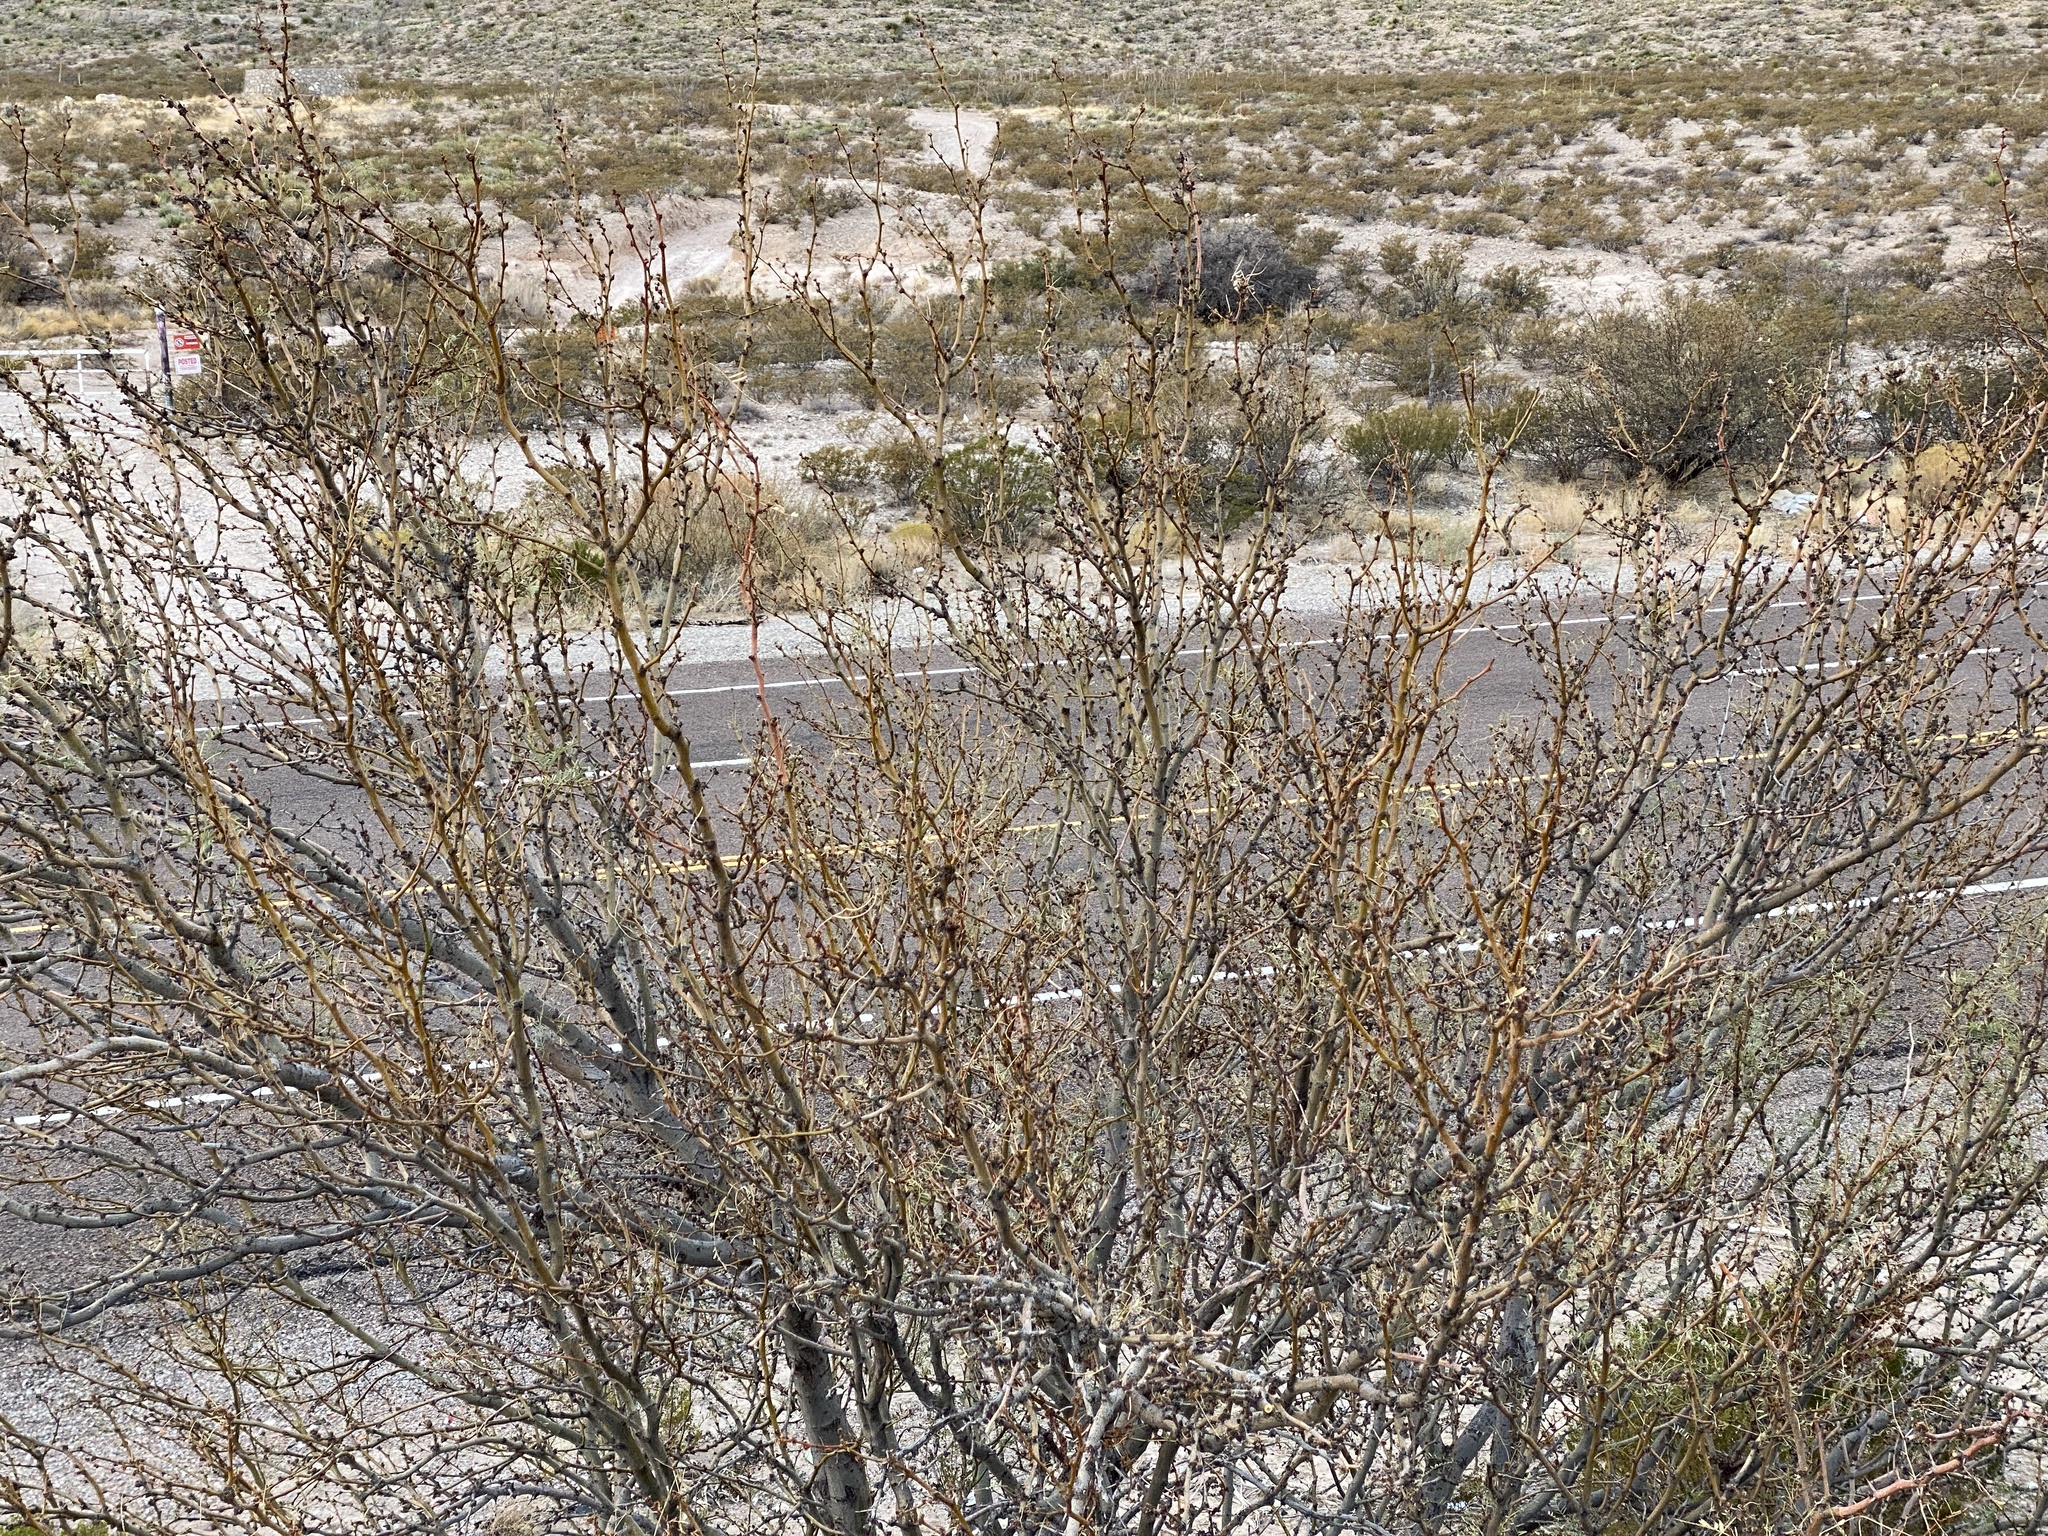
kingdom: Plantae
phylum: Tracheophyta
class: Magnoliopsida
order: Fabales
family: Fabaceae
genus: Prosopis
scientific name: Prosopis glandulosa
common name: Honey mesquite
